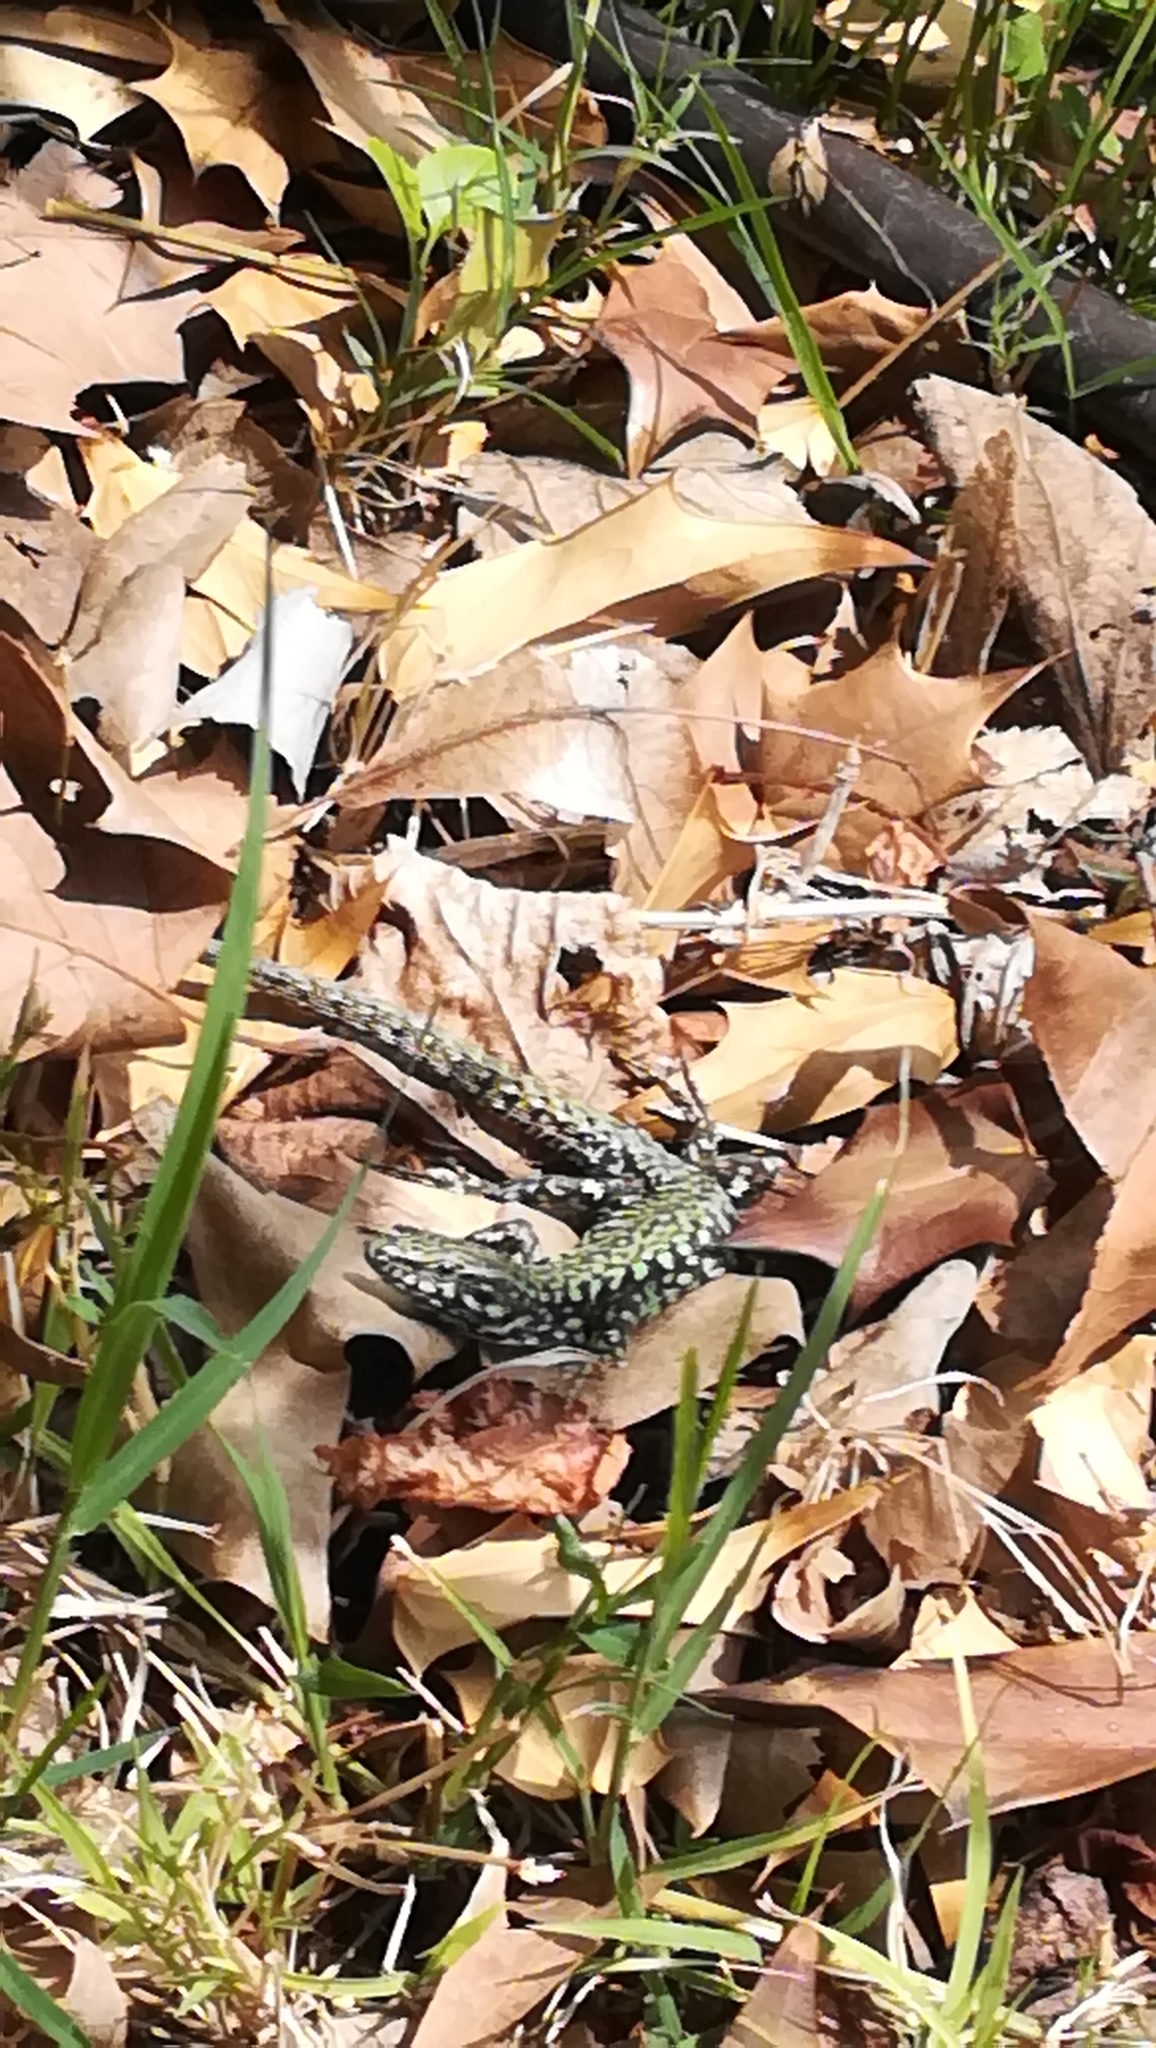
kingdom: Animalia
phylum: Chordata
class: Squamata
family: Lacertidae
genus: Podarcis
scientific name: Podarcis muralis
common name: Common wall lizard
